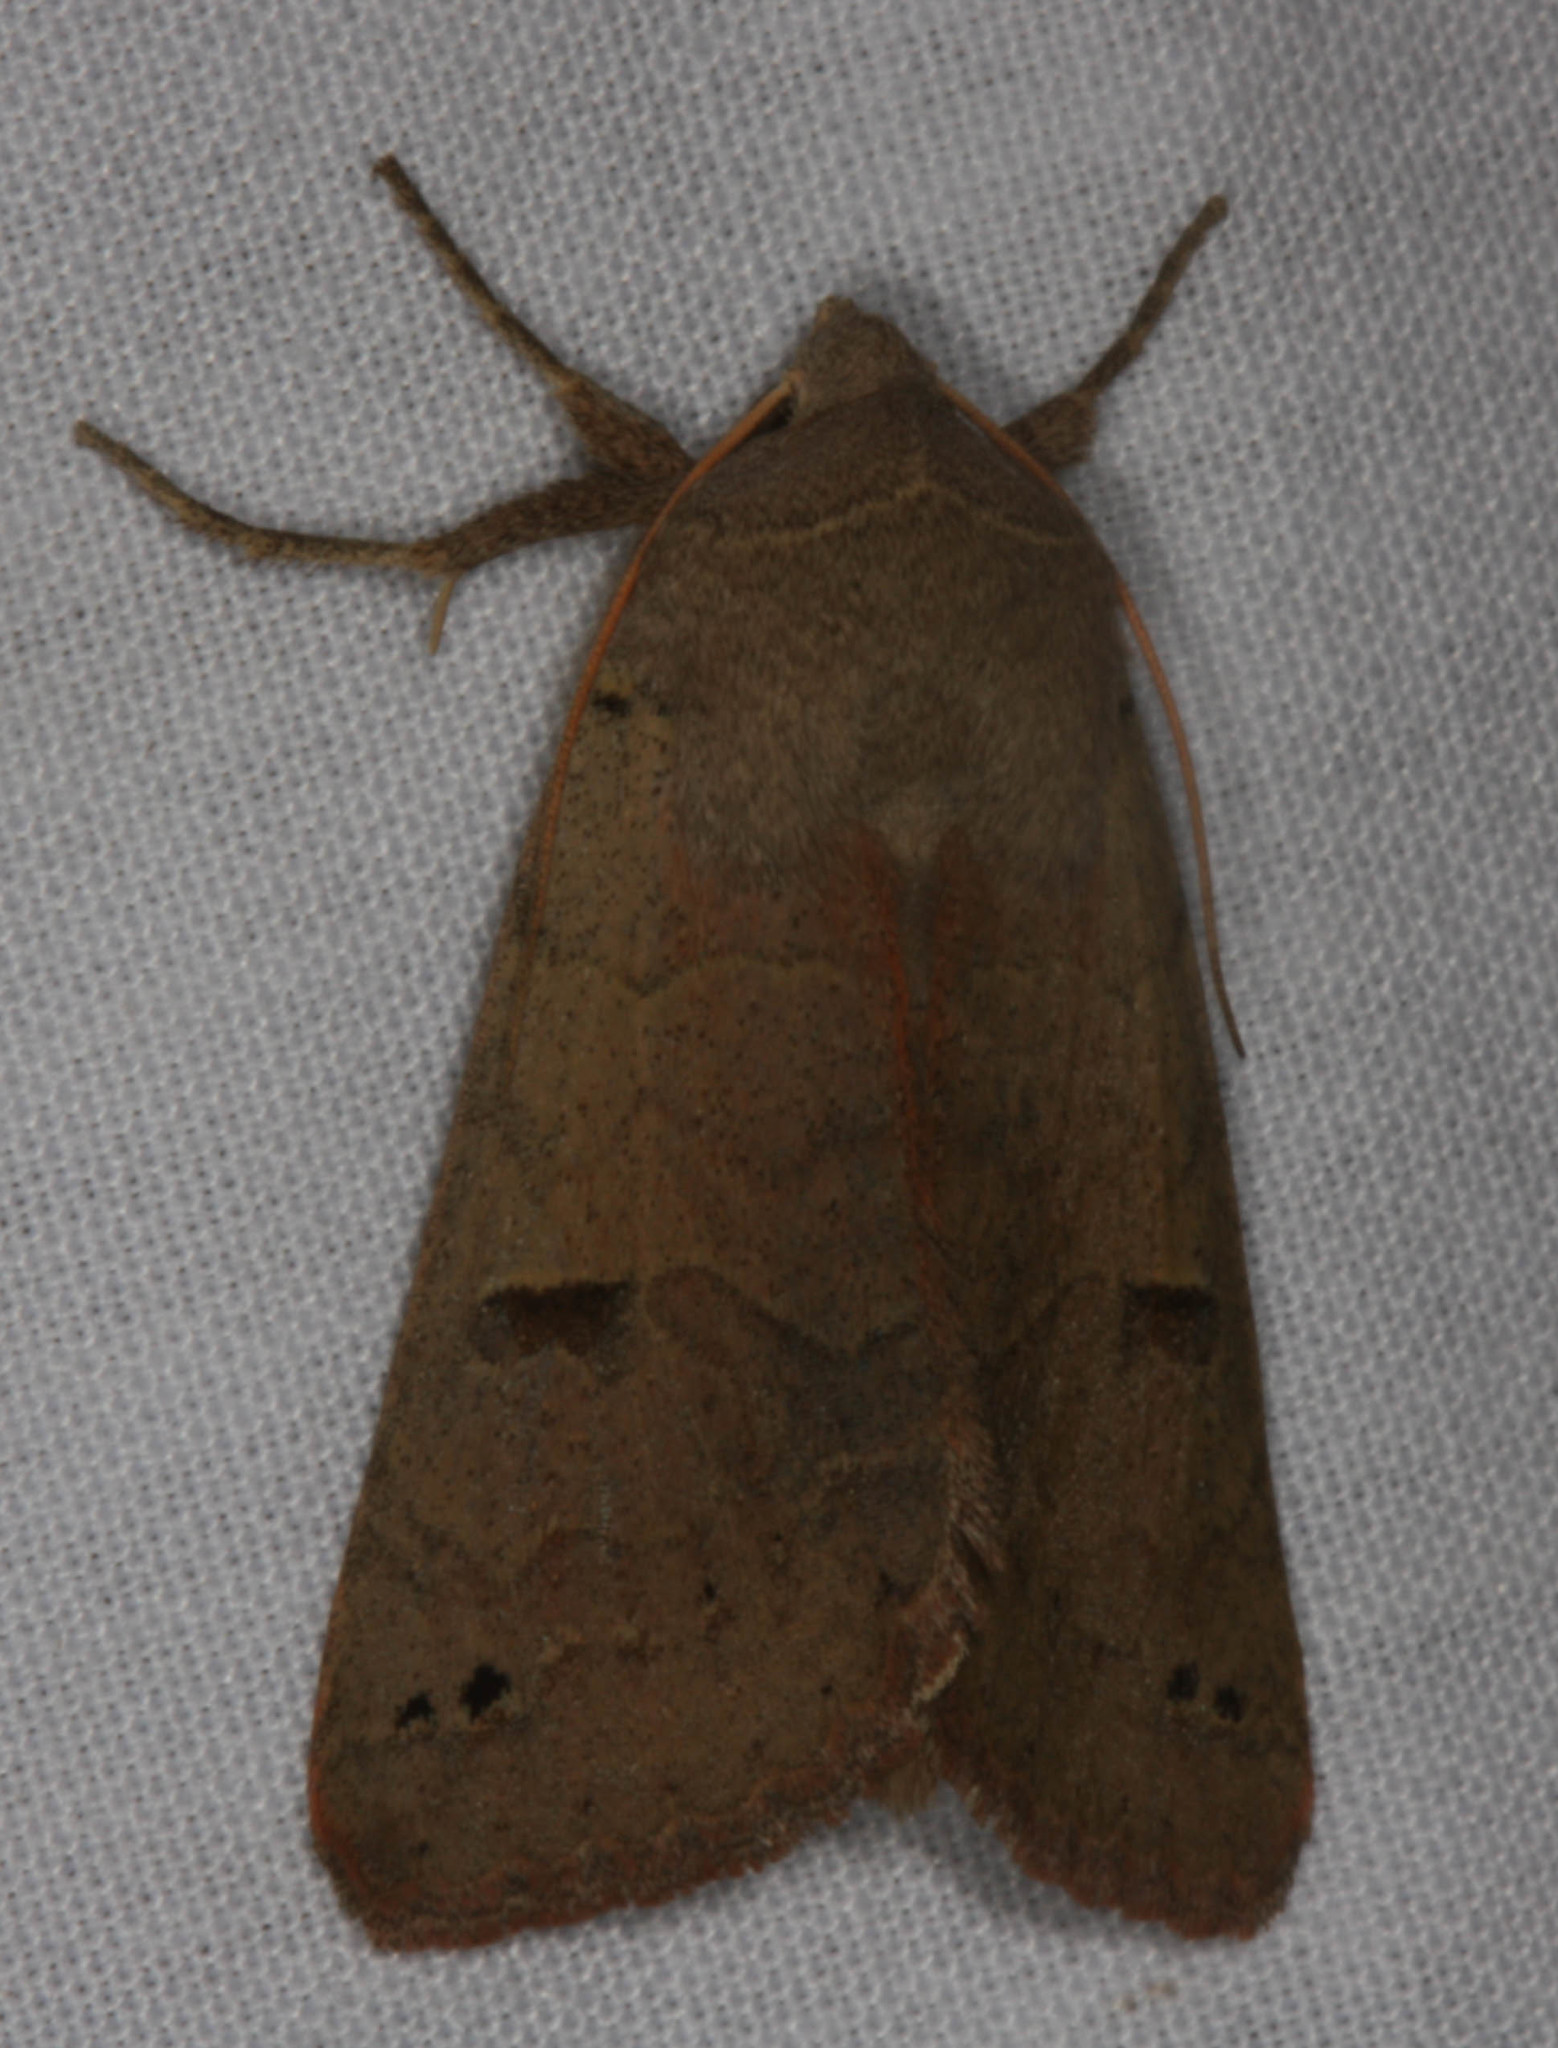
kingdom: Animalia
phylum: Arthropoda
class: Insecta
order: Lepidoptera
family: Erebidae
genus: Cissusa
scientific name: Cissusa indiscreta
